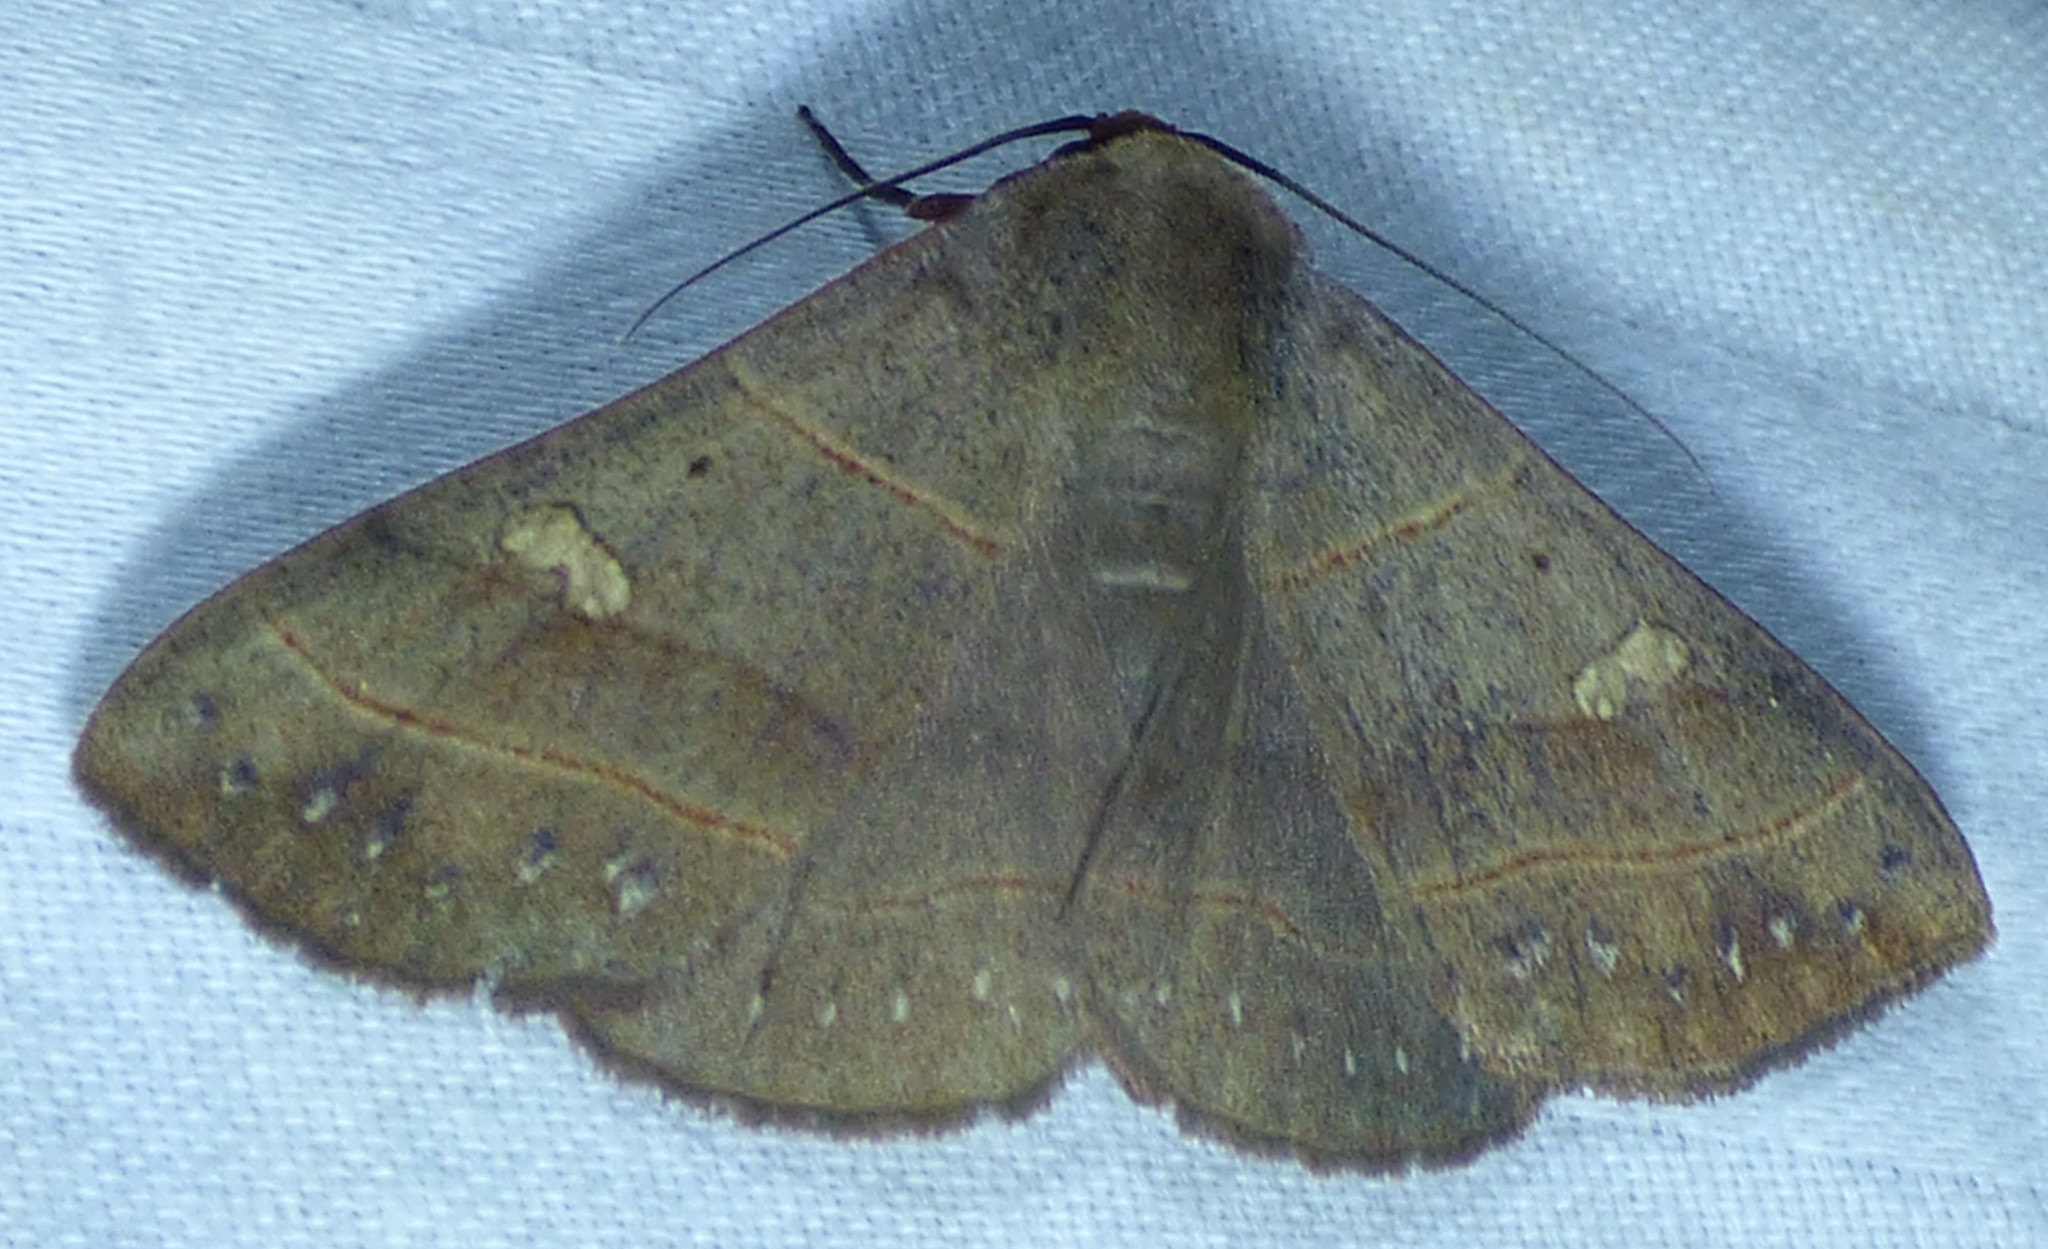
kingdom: Animalia
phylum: Arthropoda
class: Insecta
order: Lepidoptera
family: Erebidae
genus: Panopoda
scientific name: Panopoda rufimargo
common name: Red-lined panopoda moth
